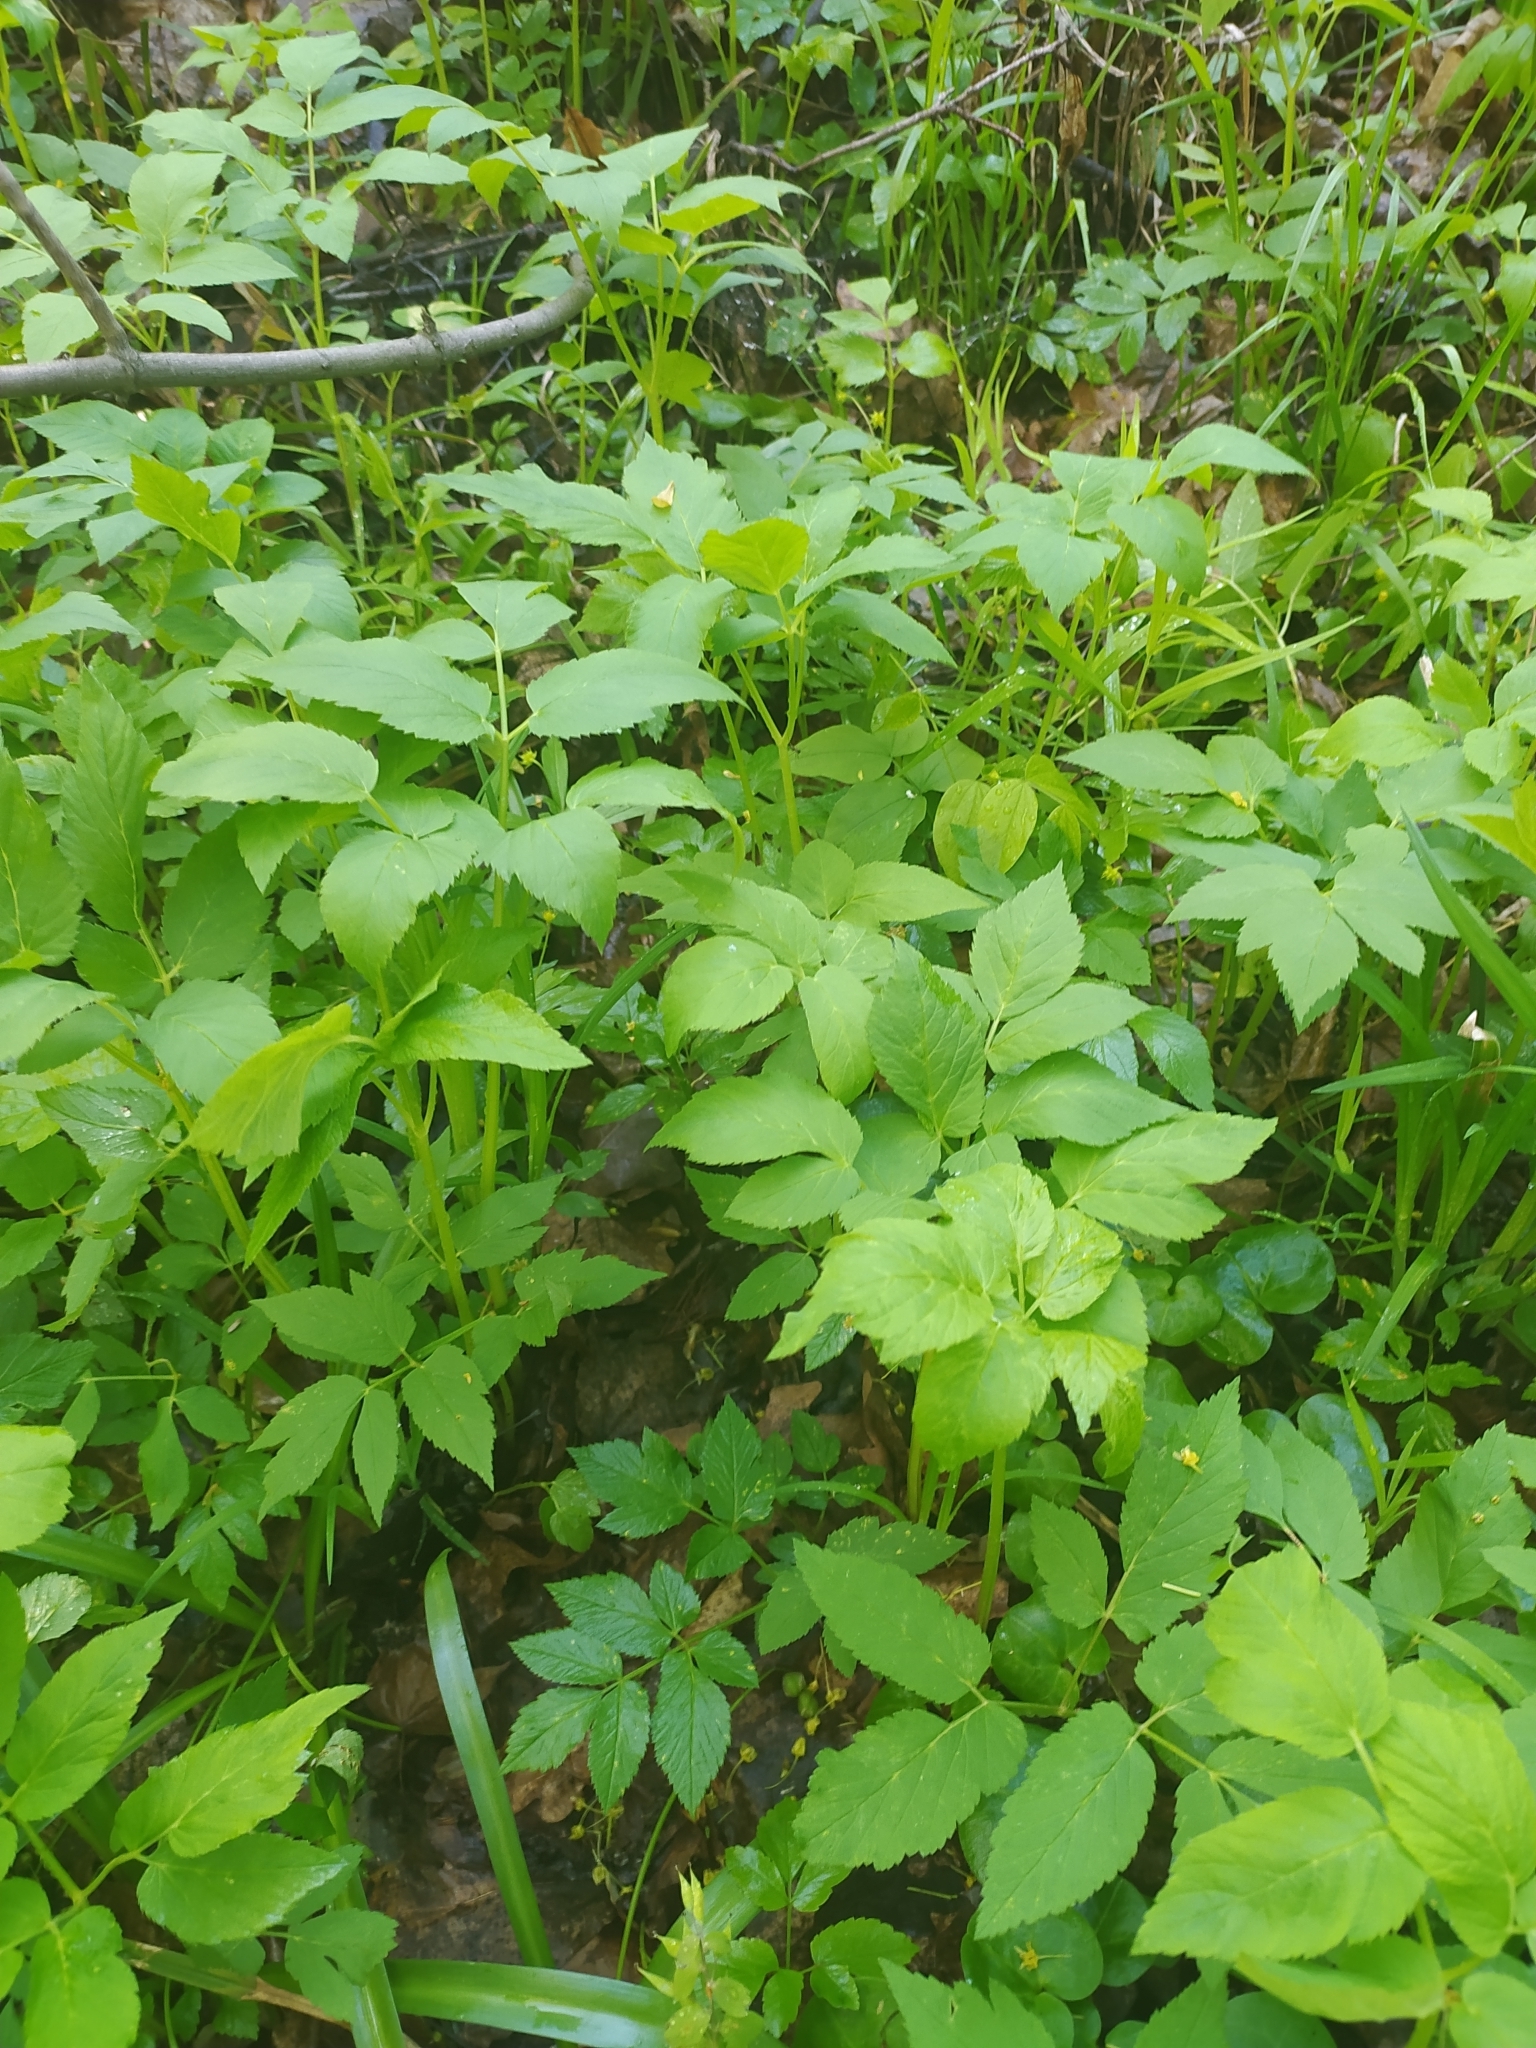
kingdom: Plantae
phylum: Tracheophyta
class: Magnoliopsida
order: Apiales
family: Apiaceae
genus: Aegopodium
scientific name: Aegopodium podagraria
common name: Ground-elder
